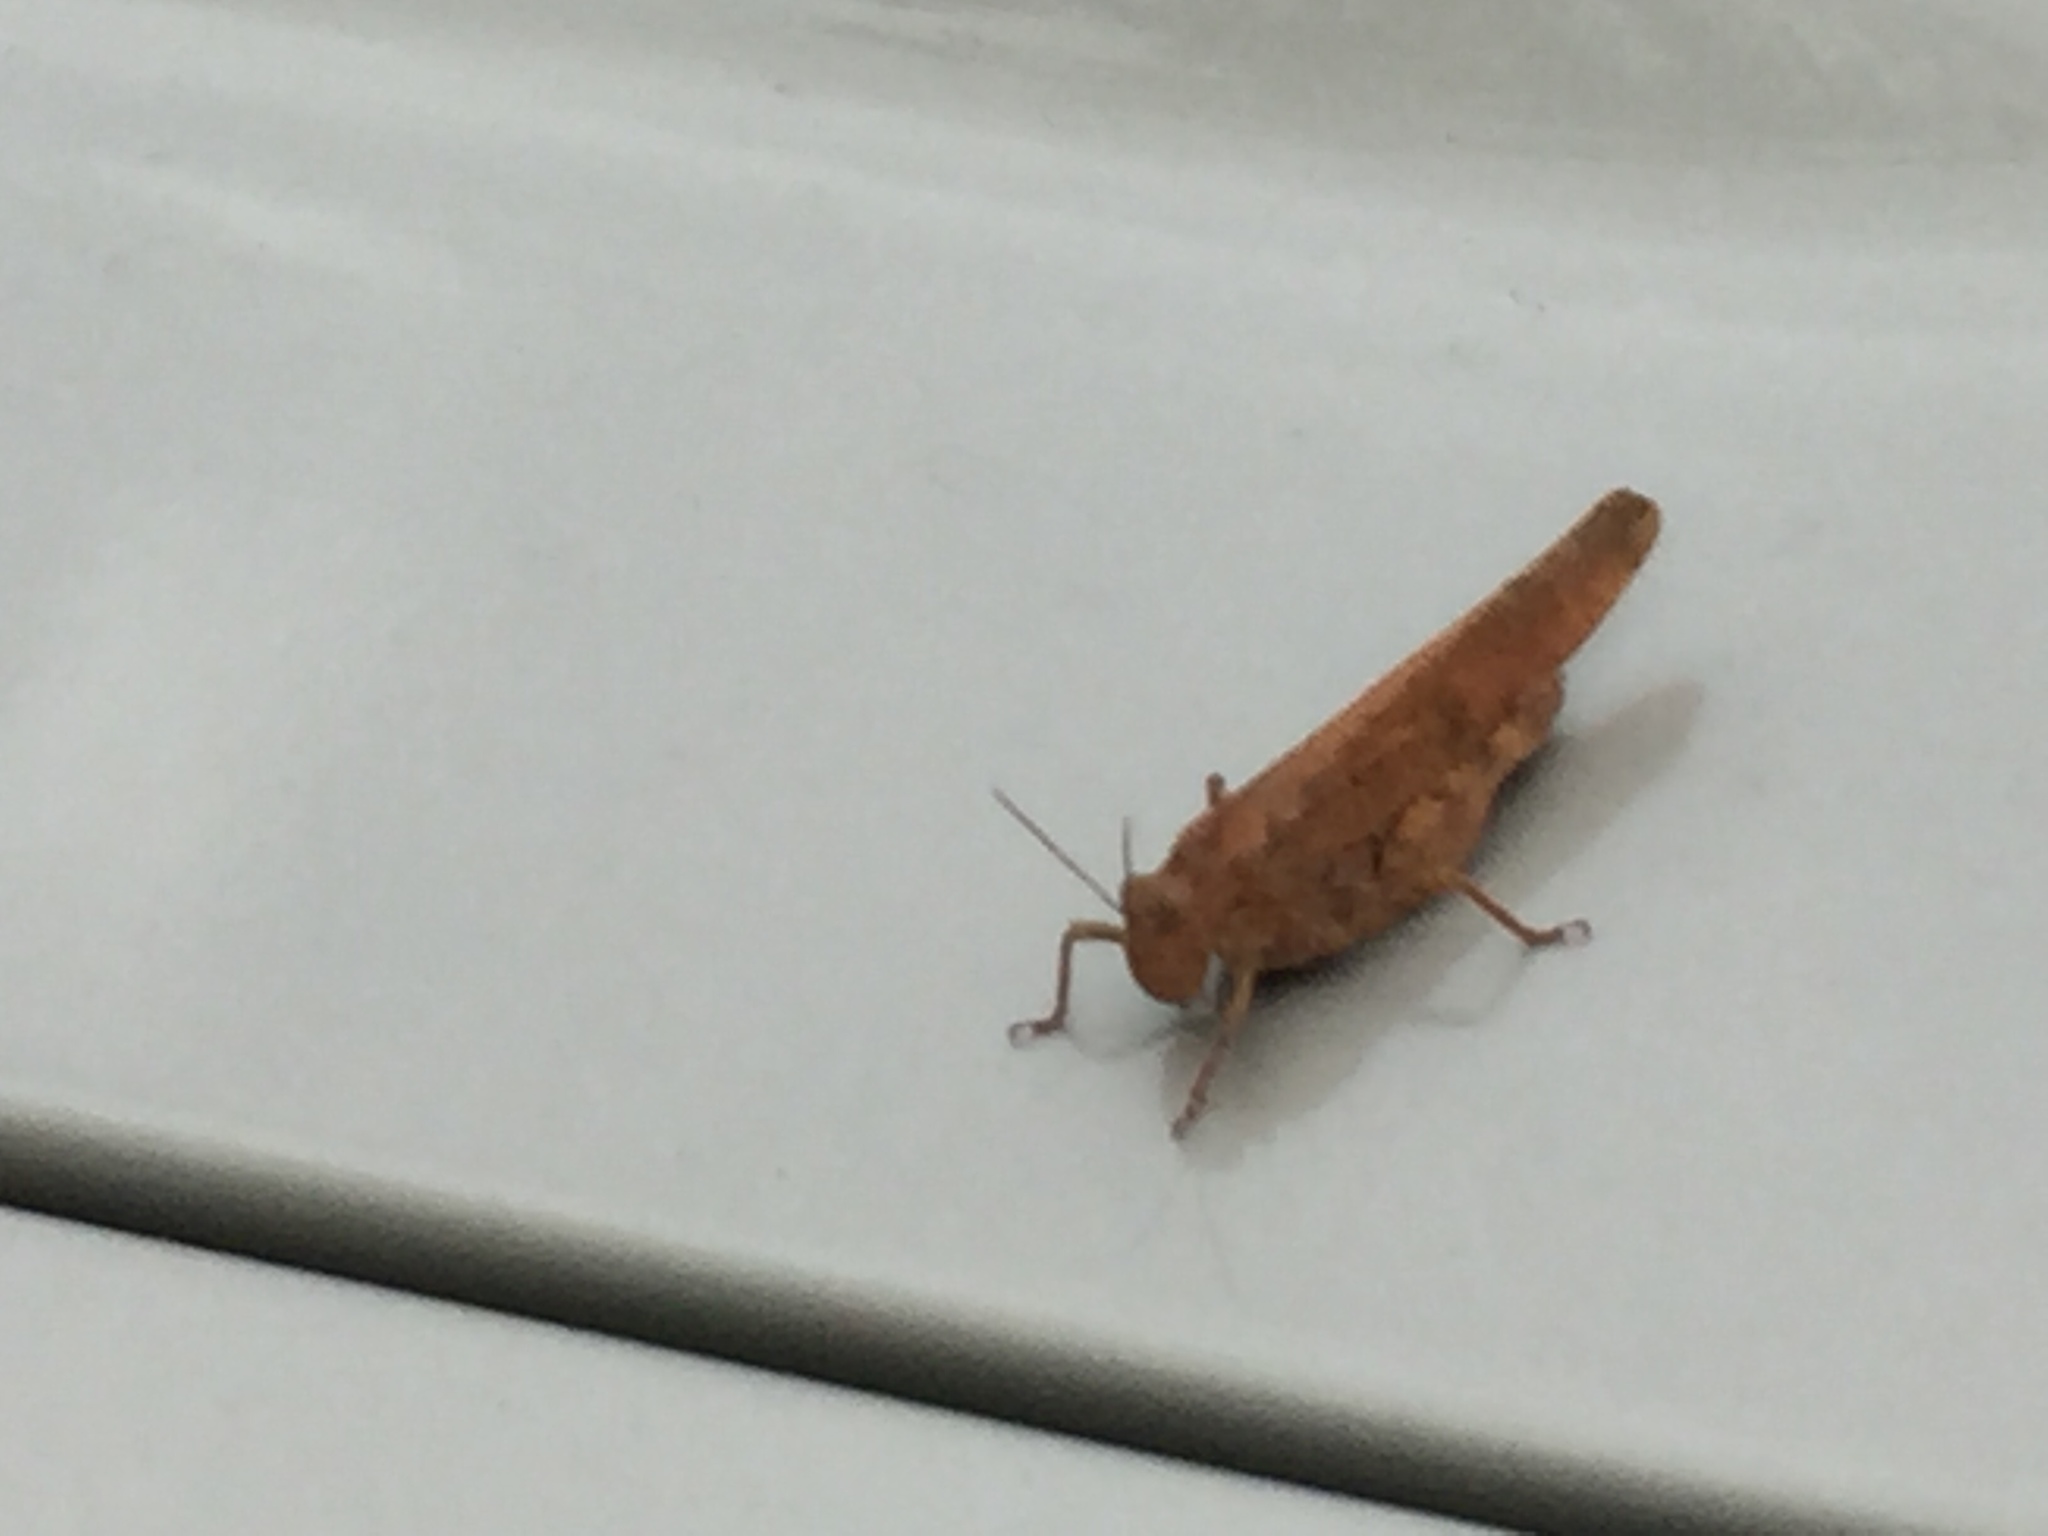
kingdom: Animalia
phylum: Arthropoda
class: Insecta
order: Orthoptera
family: Acrididae
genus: Dissosteira
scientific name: Dissosteira carolina
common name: Carolina grasshopper
